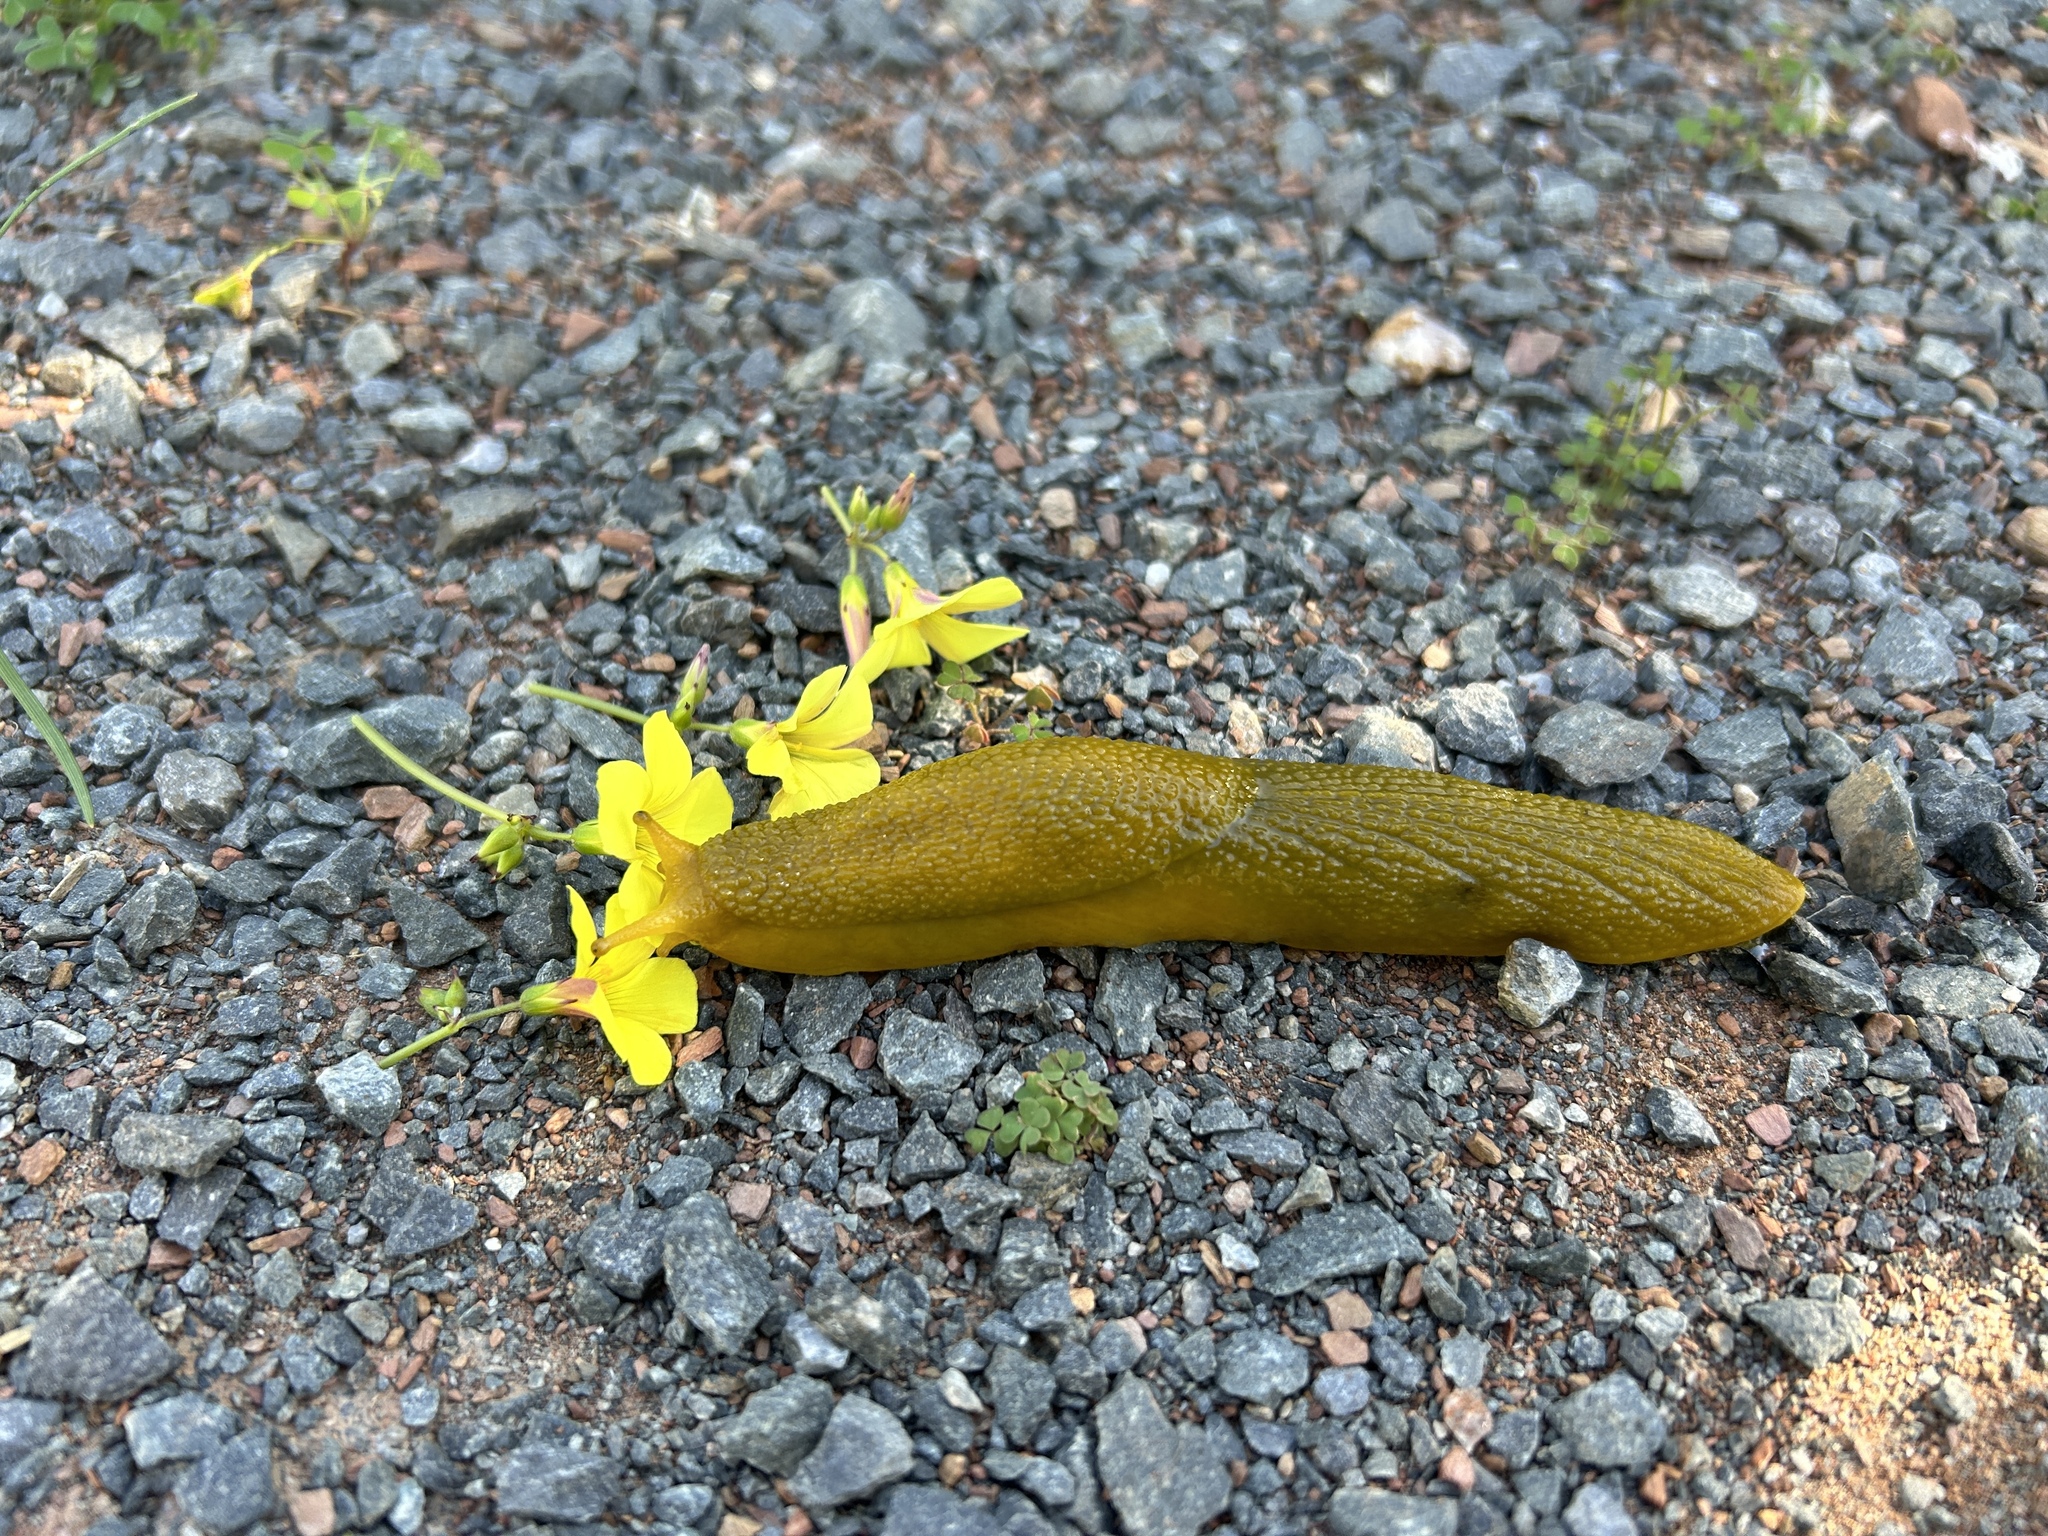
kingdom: Animalia
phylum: Mollusca
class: Gastropoda
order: Stylommatophora
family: Oopeltidae
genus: Oopelta
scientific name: Oopelta granulosa
